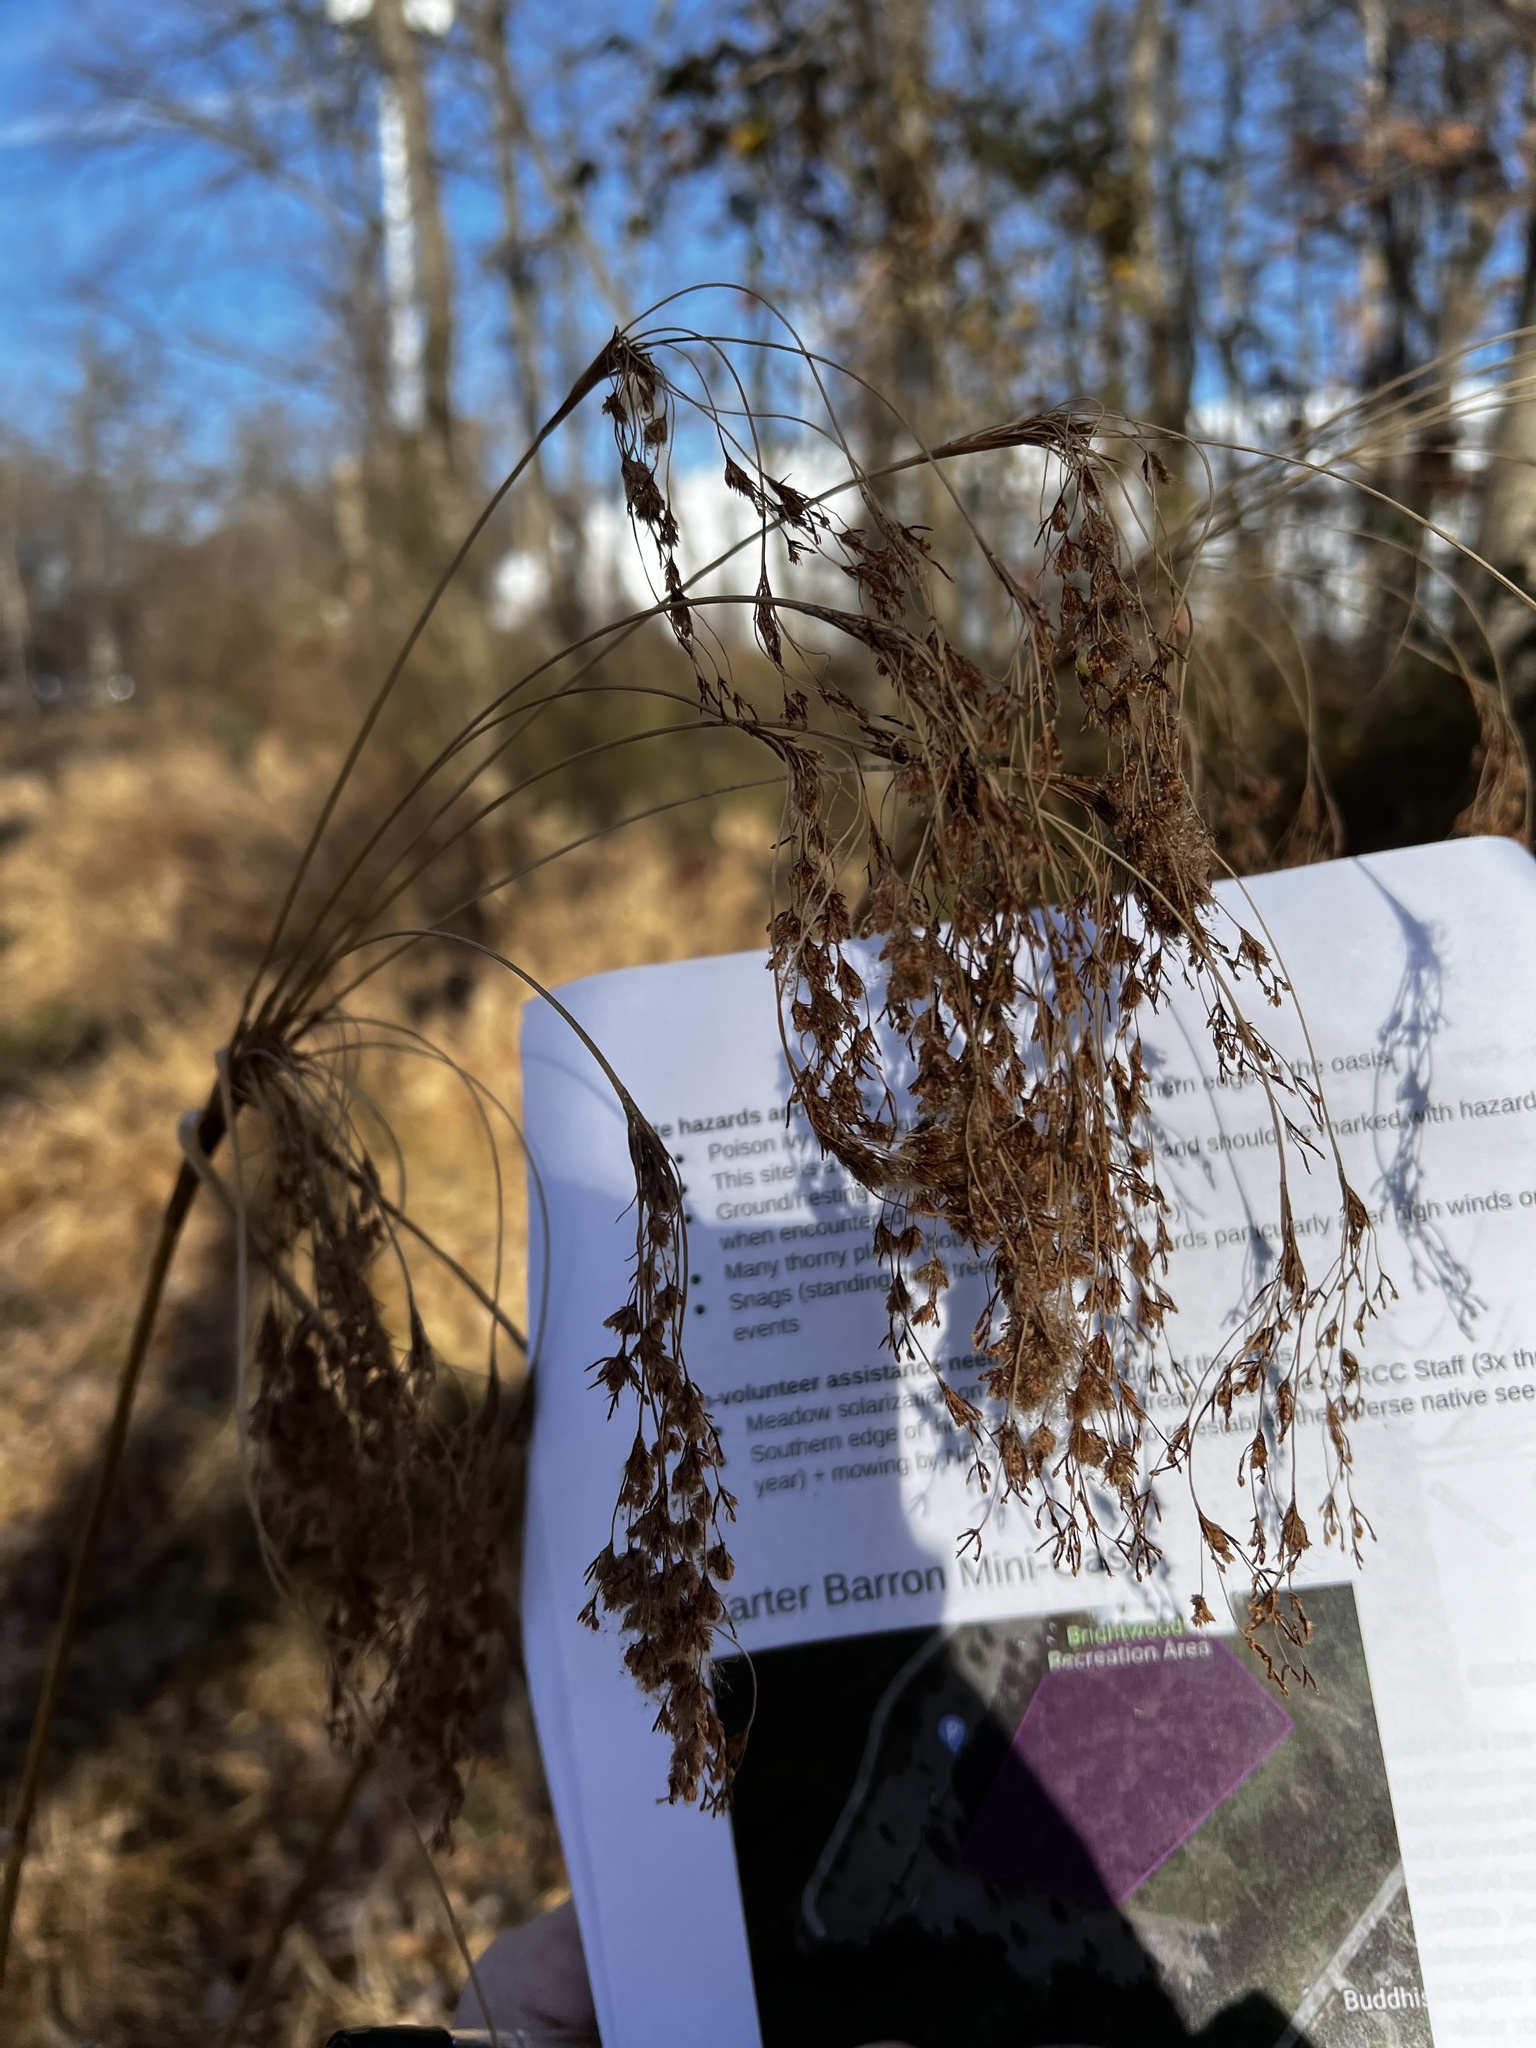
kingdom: Plantae
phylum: Tracheophyta
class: Liliopsida
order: Poales
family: Cyperaceae
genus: Scirpus
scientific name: Scirpus cyperinus
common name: Black-sheathed bulrush
